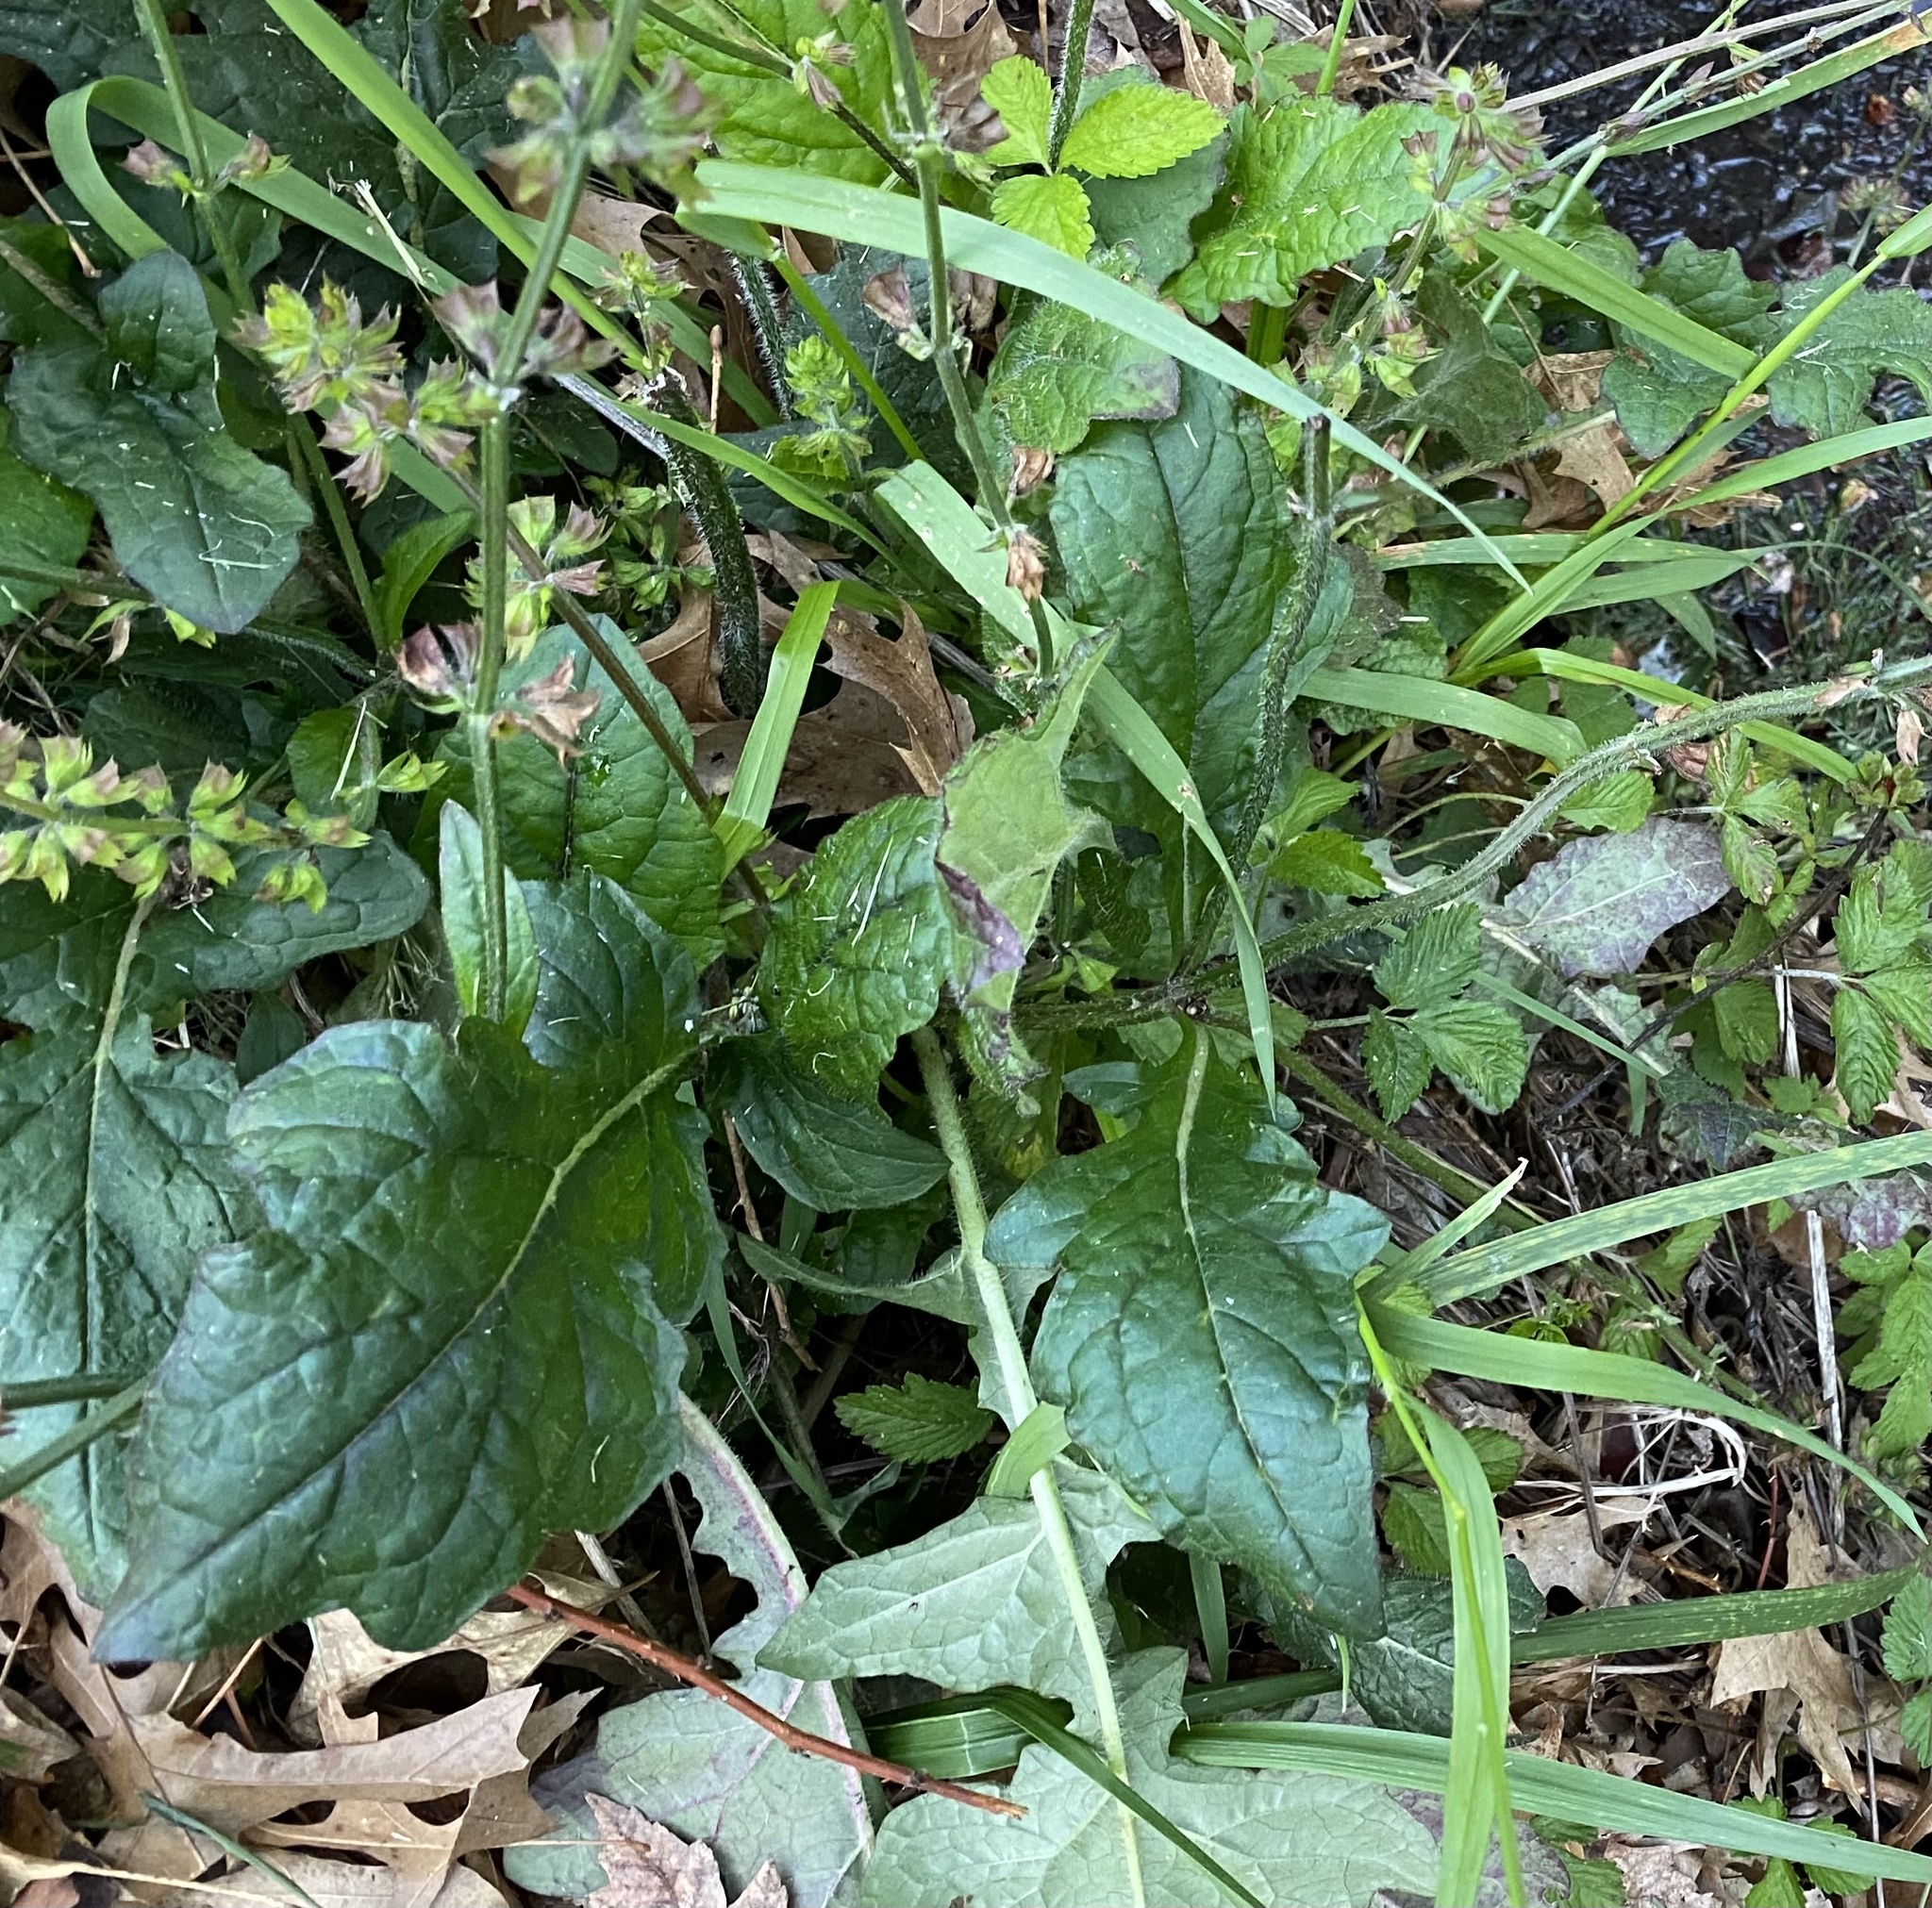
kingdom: Plantae
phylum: Tracheophyta
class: Magnoliopsida
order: Lamiales
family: Lamiaceae
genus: Salvia
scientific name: Salvia lyrata
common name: Cancerweed
